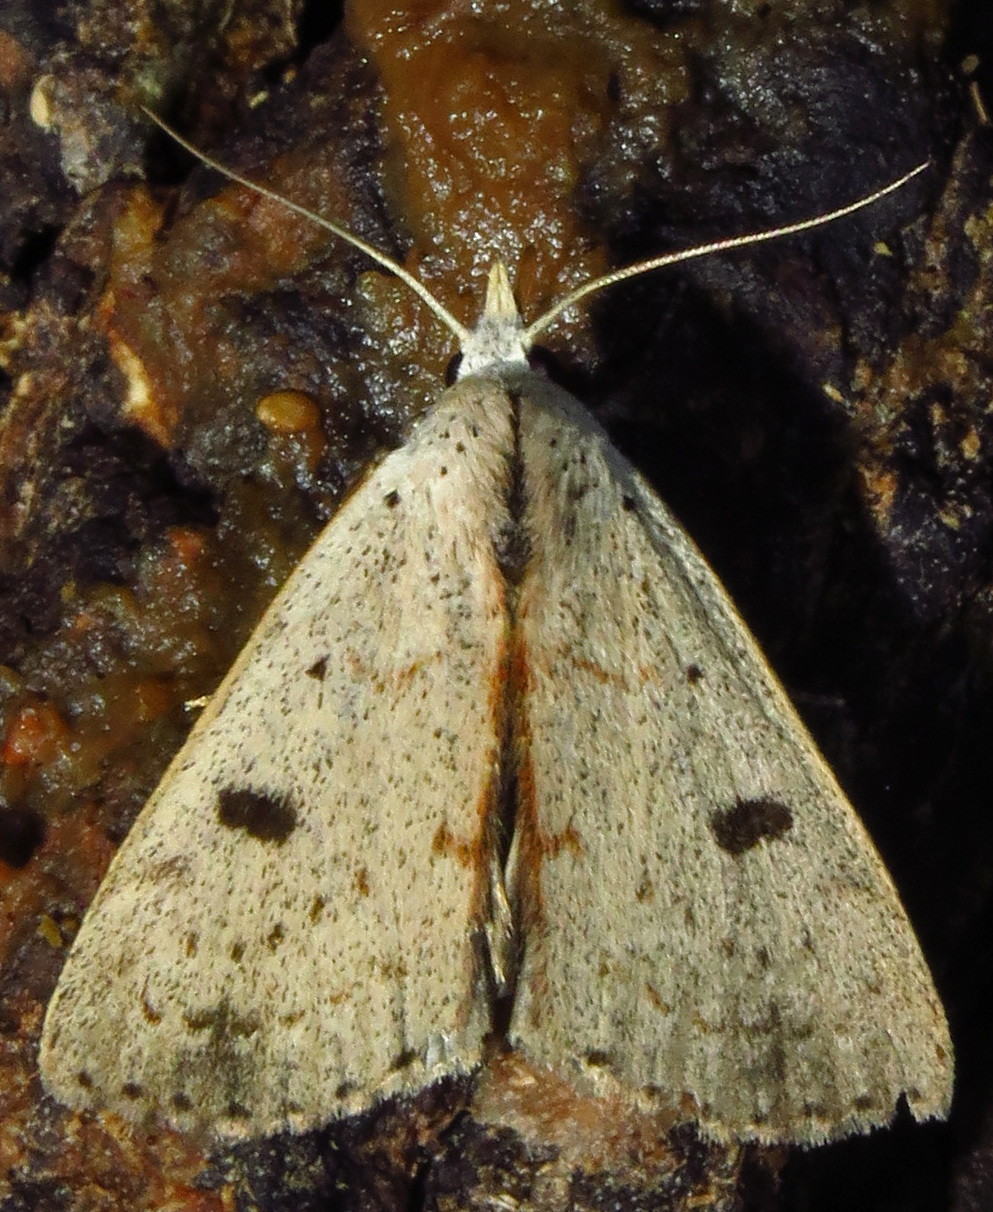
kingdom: Animalia
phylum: Arthropoda
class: Insecta
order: Lepidoptera
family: Erebidae
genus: Scolecocampa
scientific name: Scolecocampa liburna
